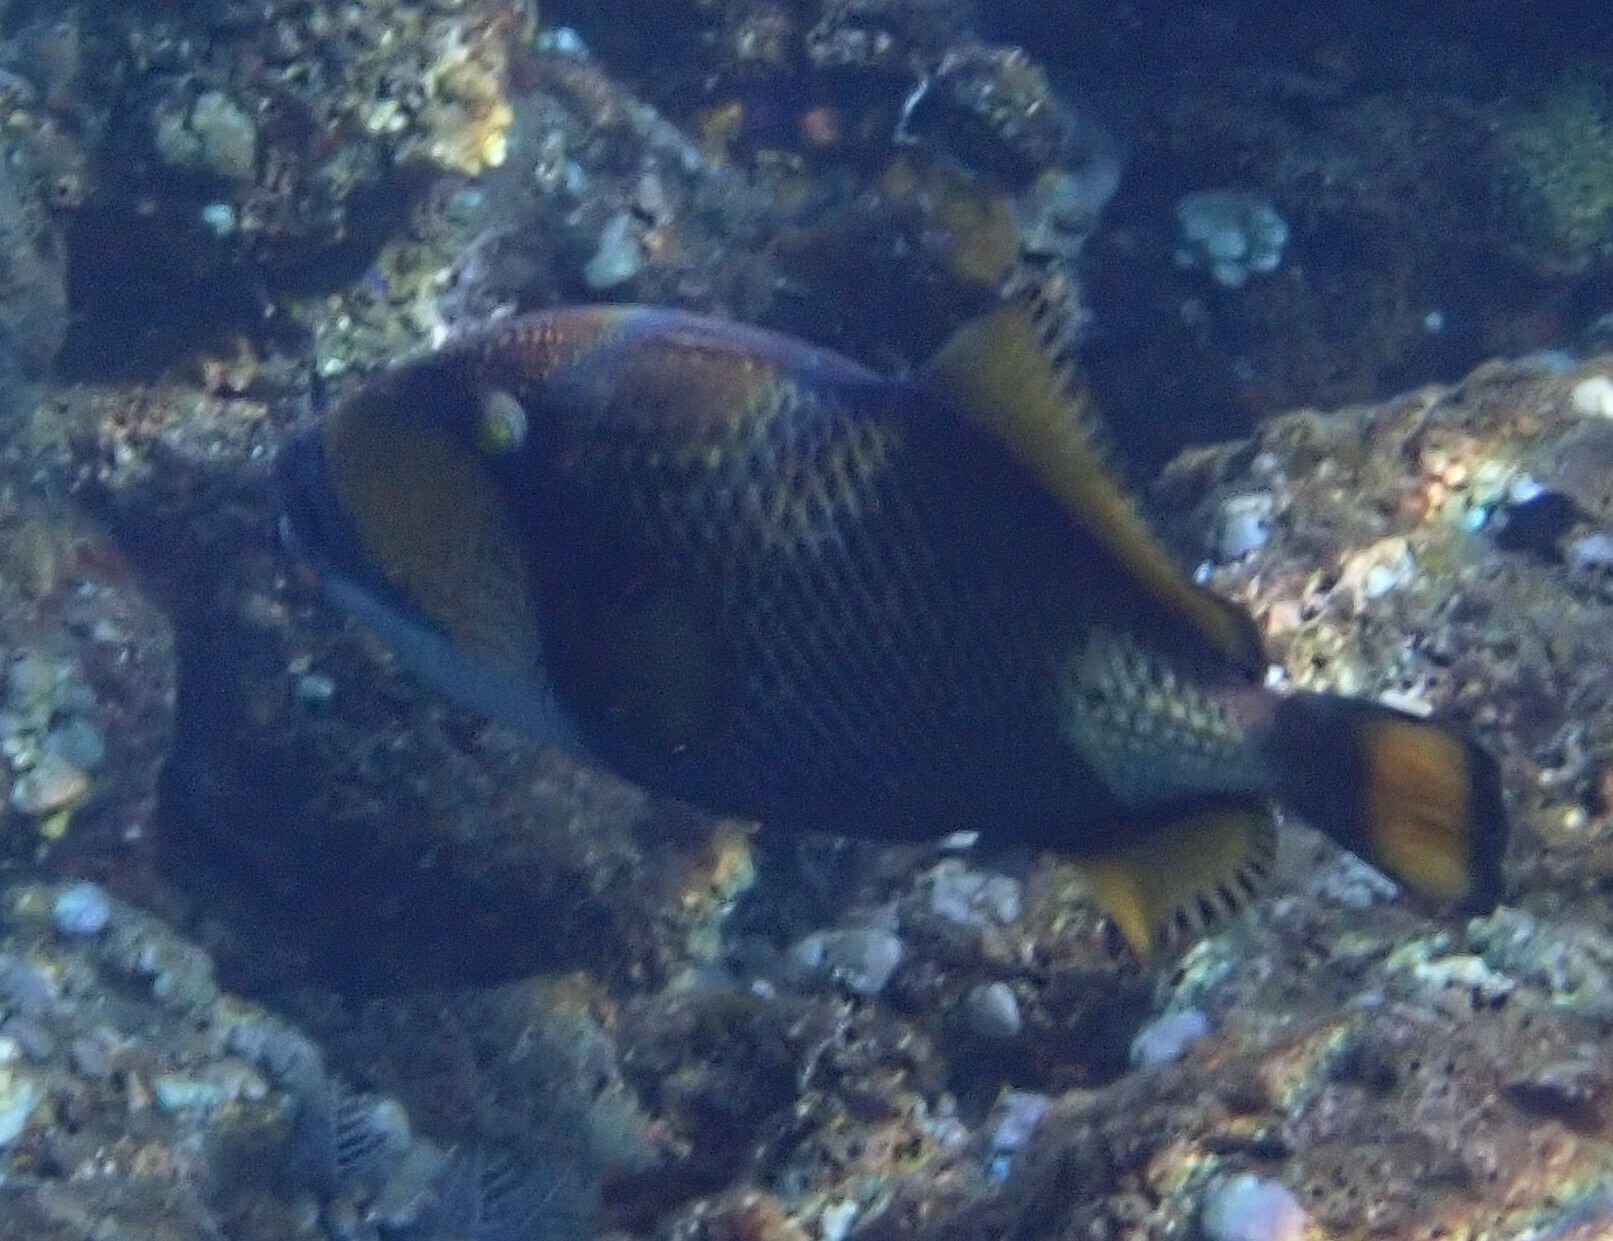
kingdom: Animalia
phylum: Chordata
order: Tetraodontiformes
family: Balistidae
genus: Balistoides
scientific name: Balistoides viridescens
